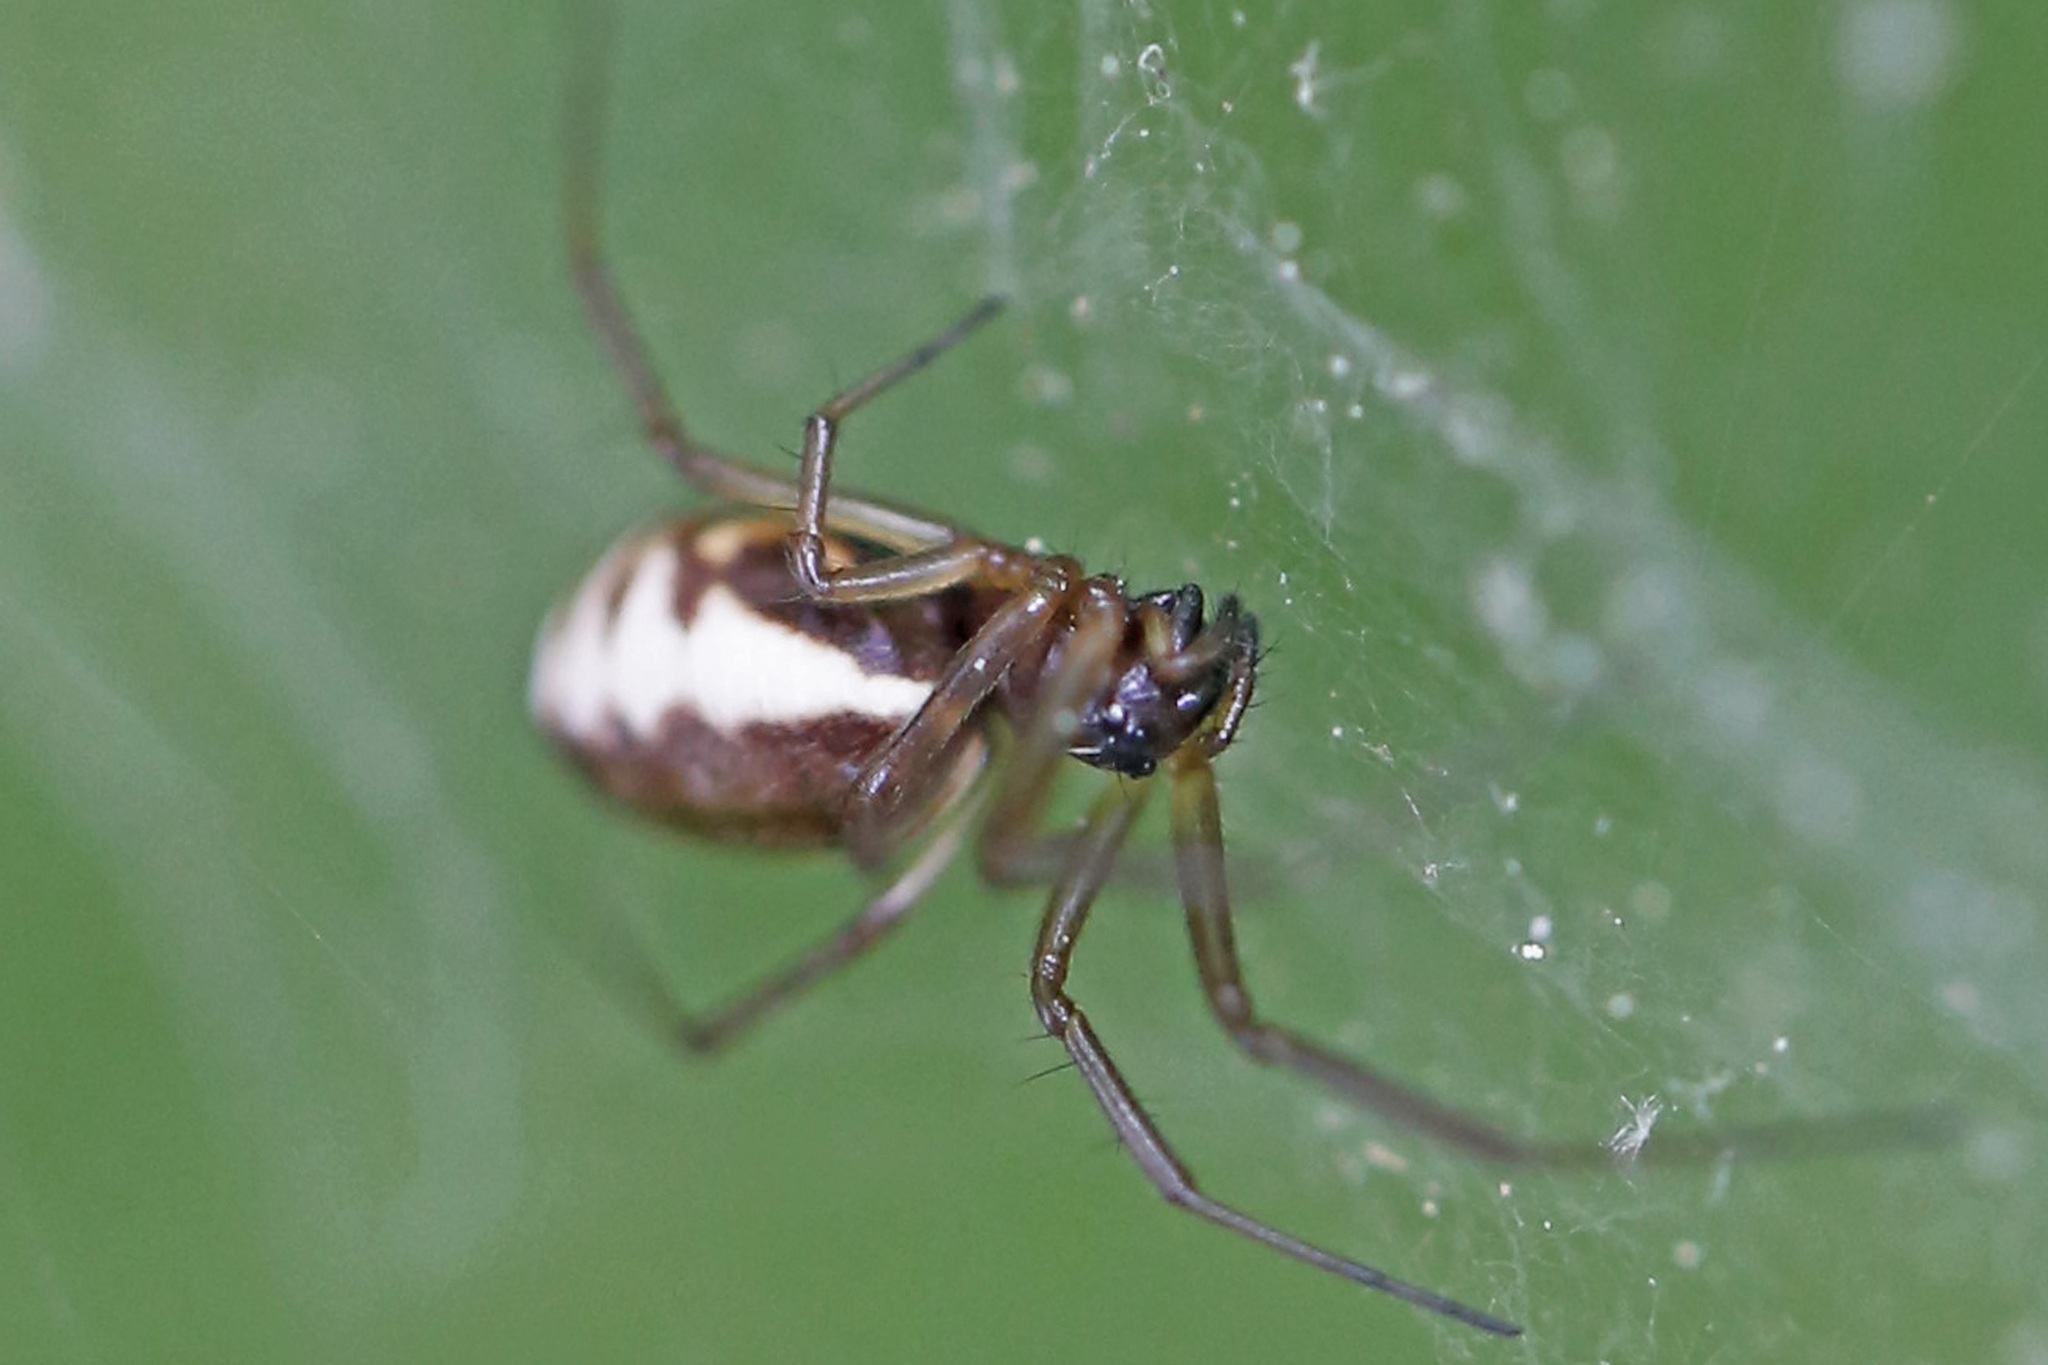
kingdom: Animalia
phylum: Arthropoda
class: Arachnida
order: Araneae
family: Linyphiidae
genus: Frontinella
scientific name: Frontinella pyramitela
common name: Bowl-and-doily spider
